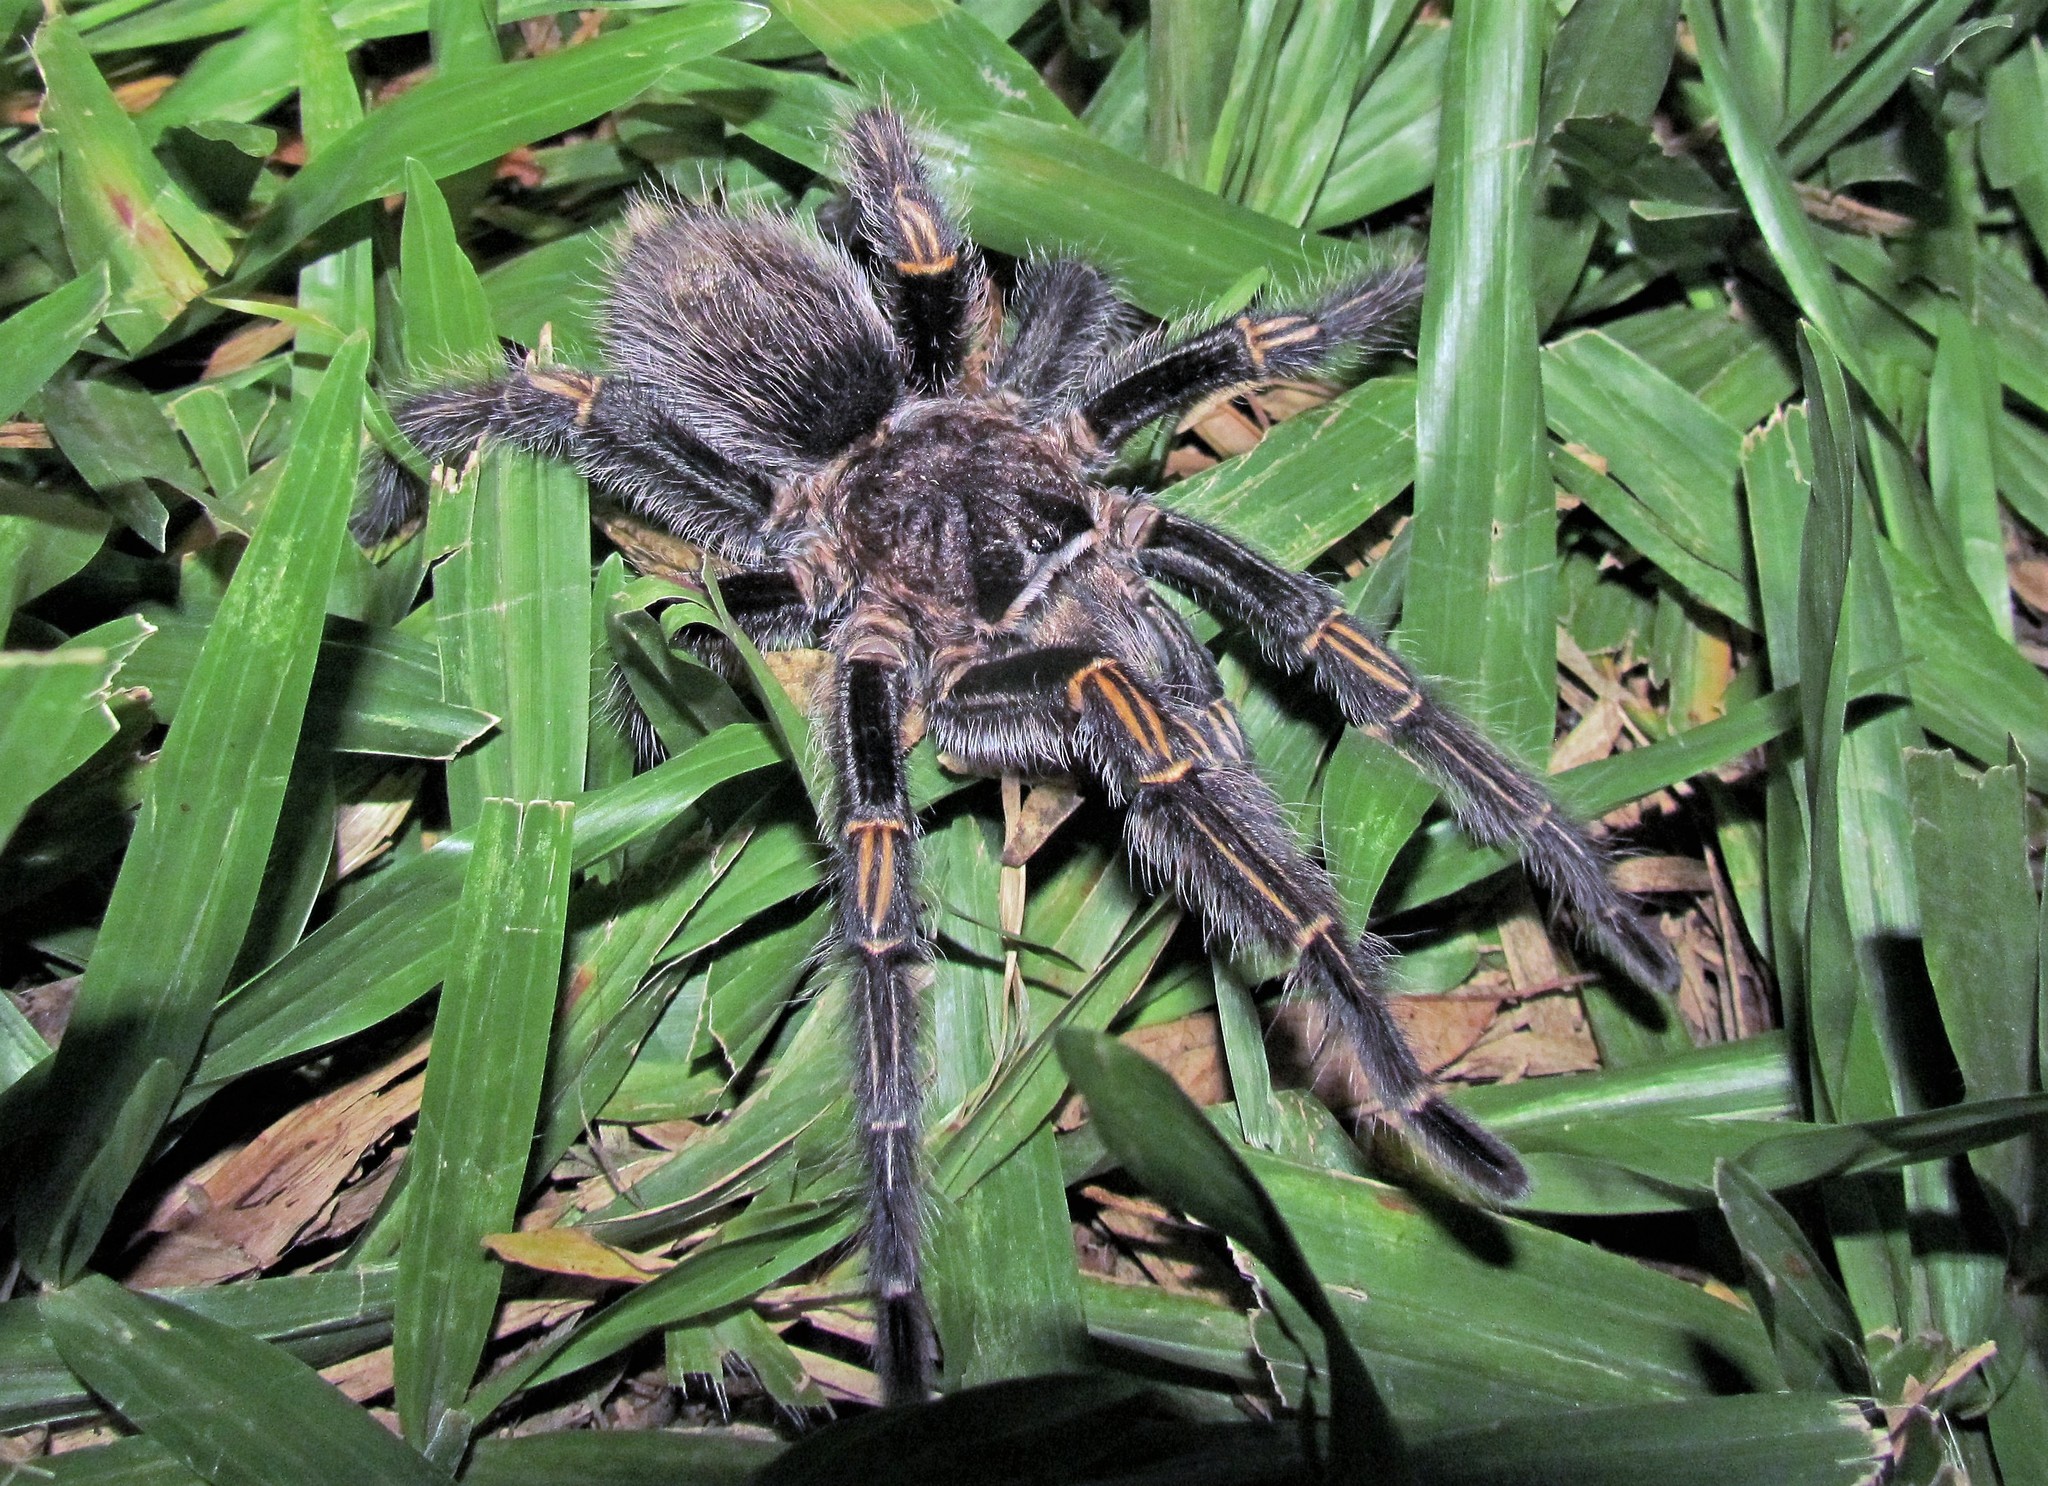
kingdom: Animalia
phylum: Arthropoda
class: Arachnida
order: Araneae
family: Theraphosidae
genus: Grammostola
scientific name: Grammostola pulchripes
